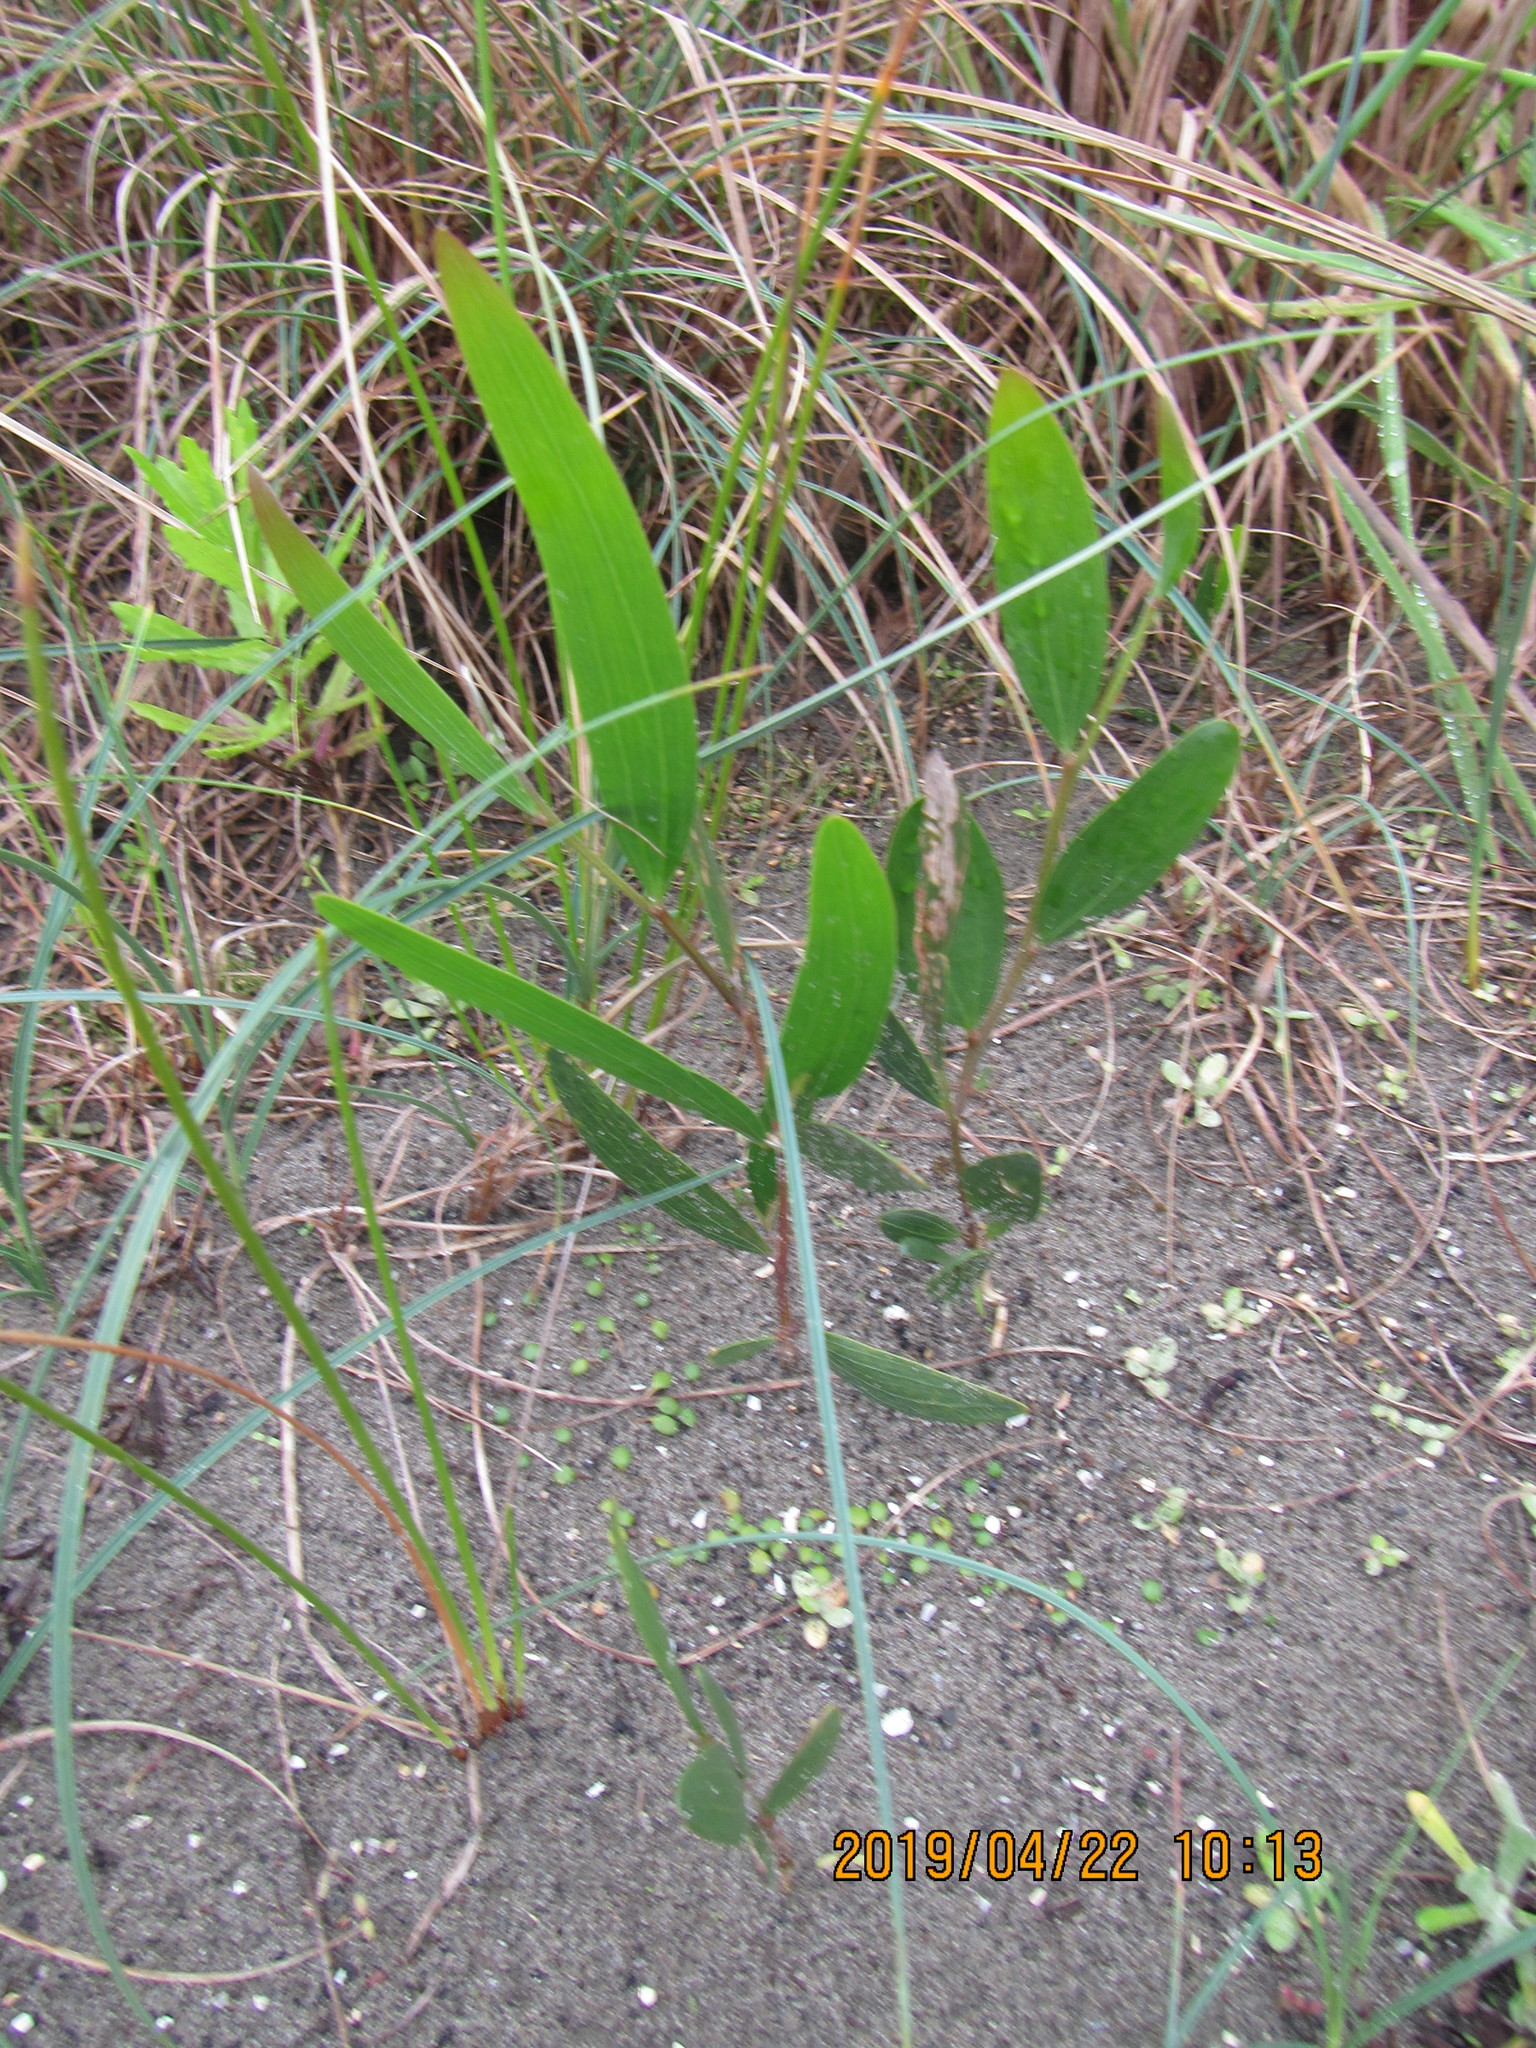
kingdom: Plantae
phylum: Tracheophyta
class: Magnoliopsida
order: Fabales
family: Fabaceae
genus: Acacia
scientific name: Acacia longifolia
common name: Sydney golden wattle
